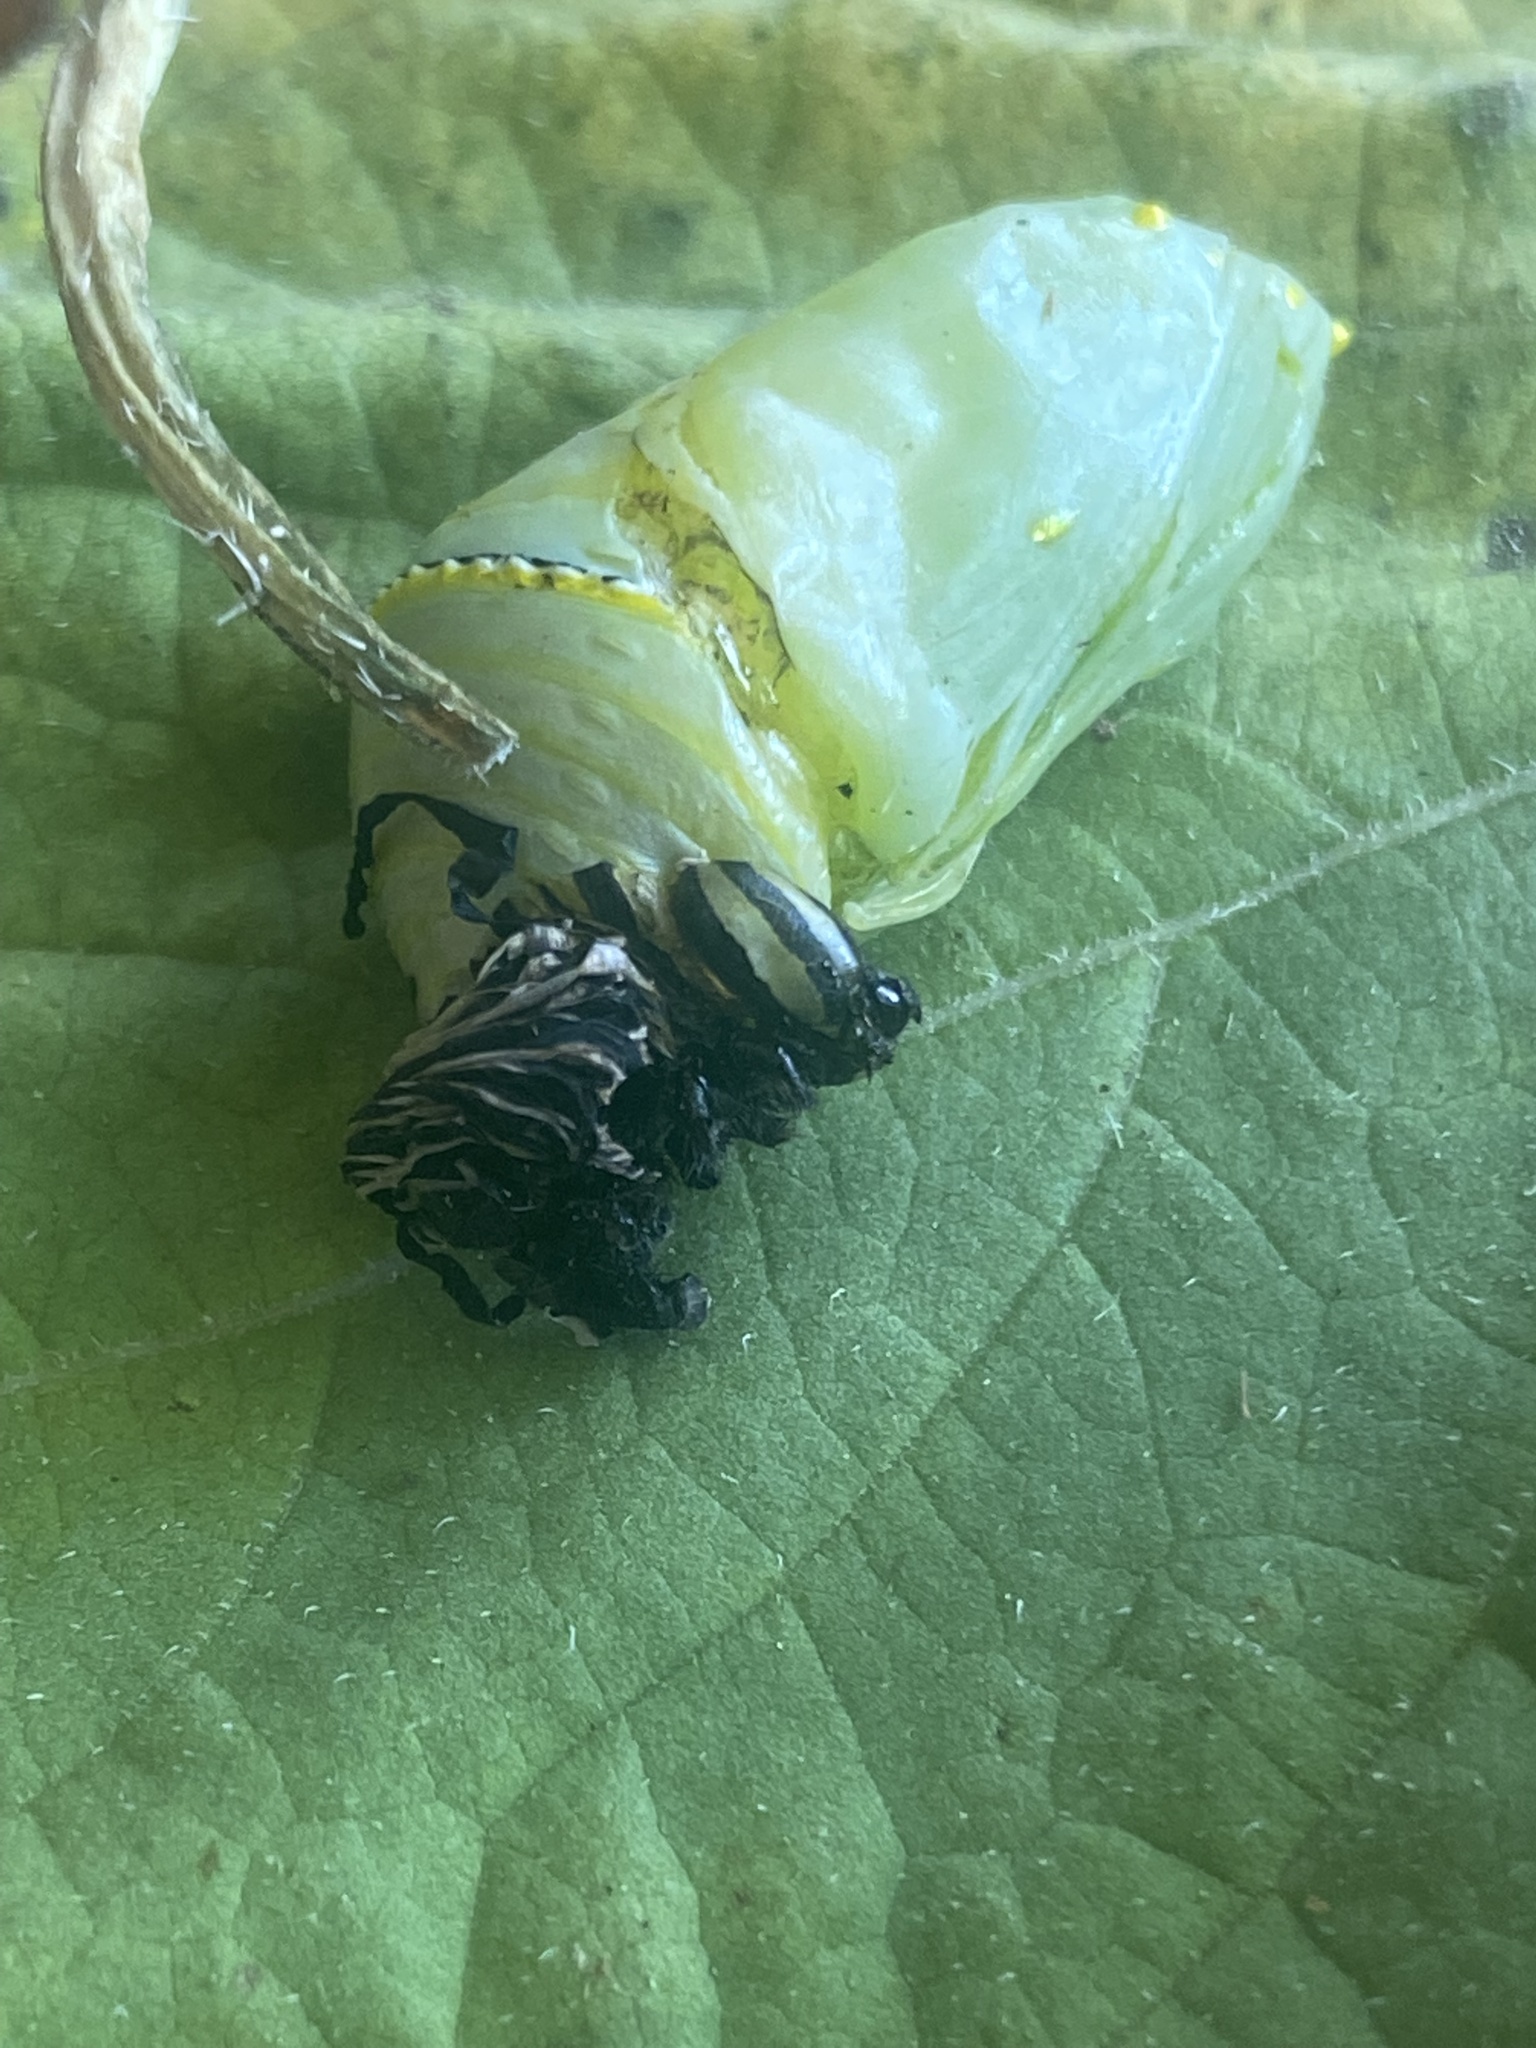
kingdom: Animalia
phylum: Arthropoda
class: Insecta
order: Lepidoptera
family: Nymphalidae
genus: Danaus
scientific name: Danaus plexippus
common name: Monarch
